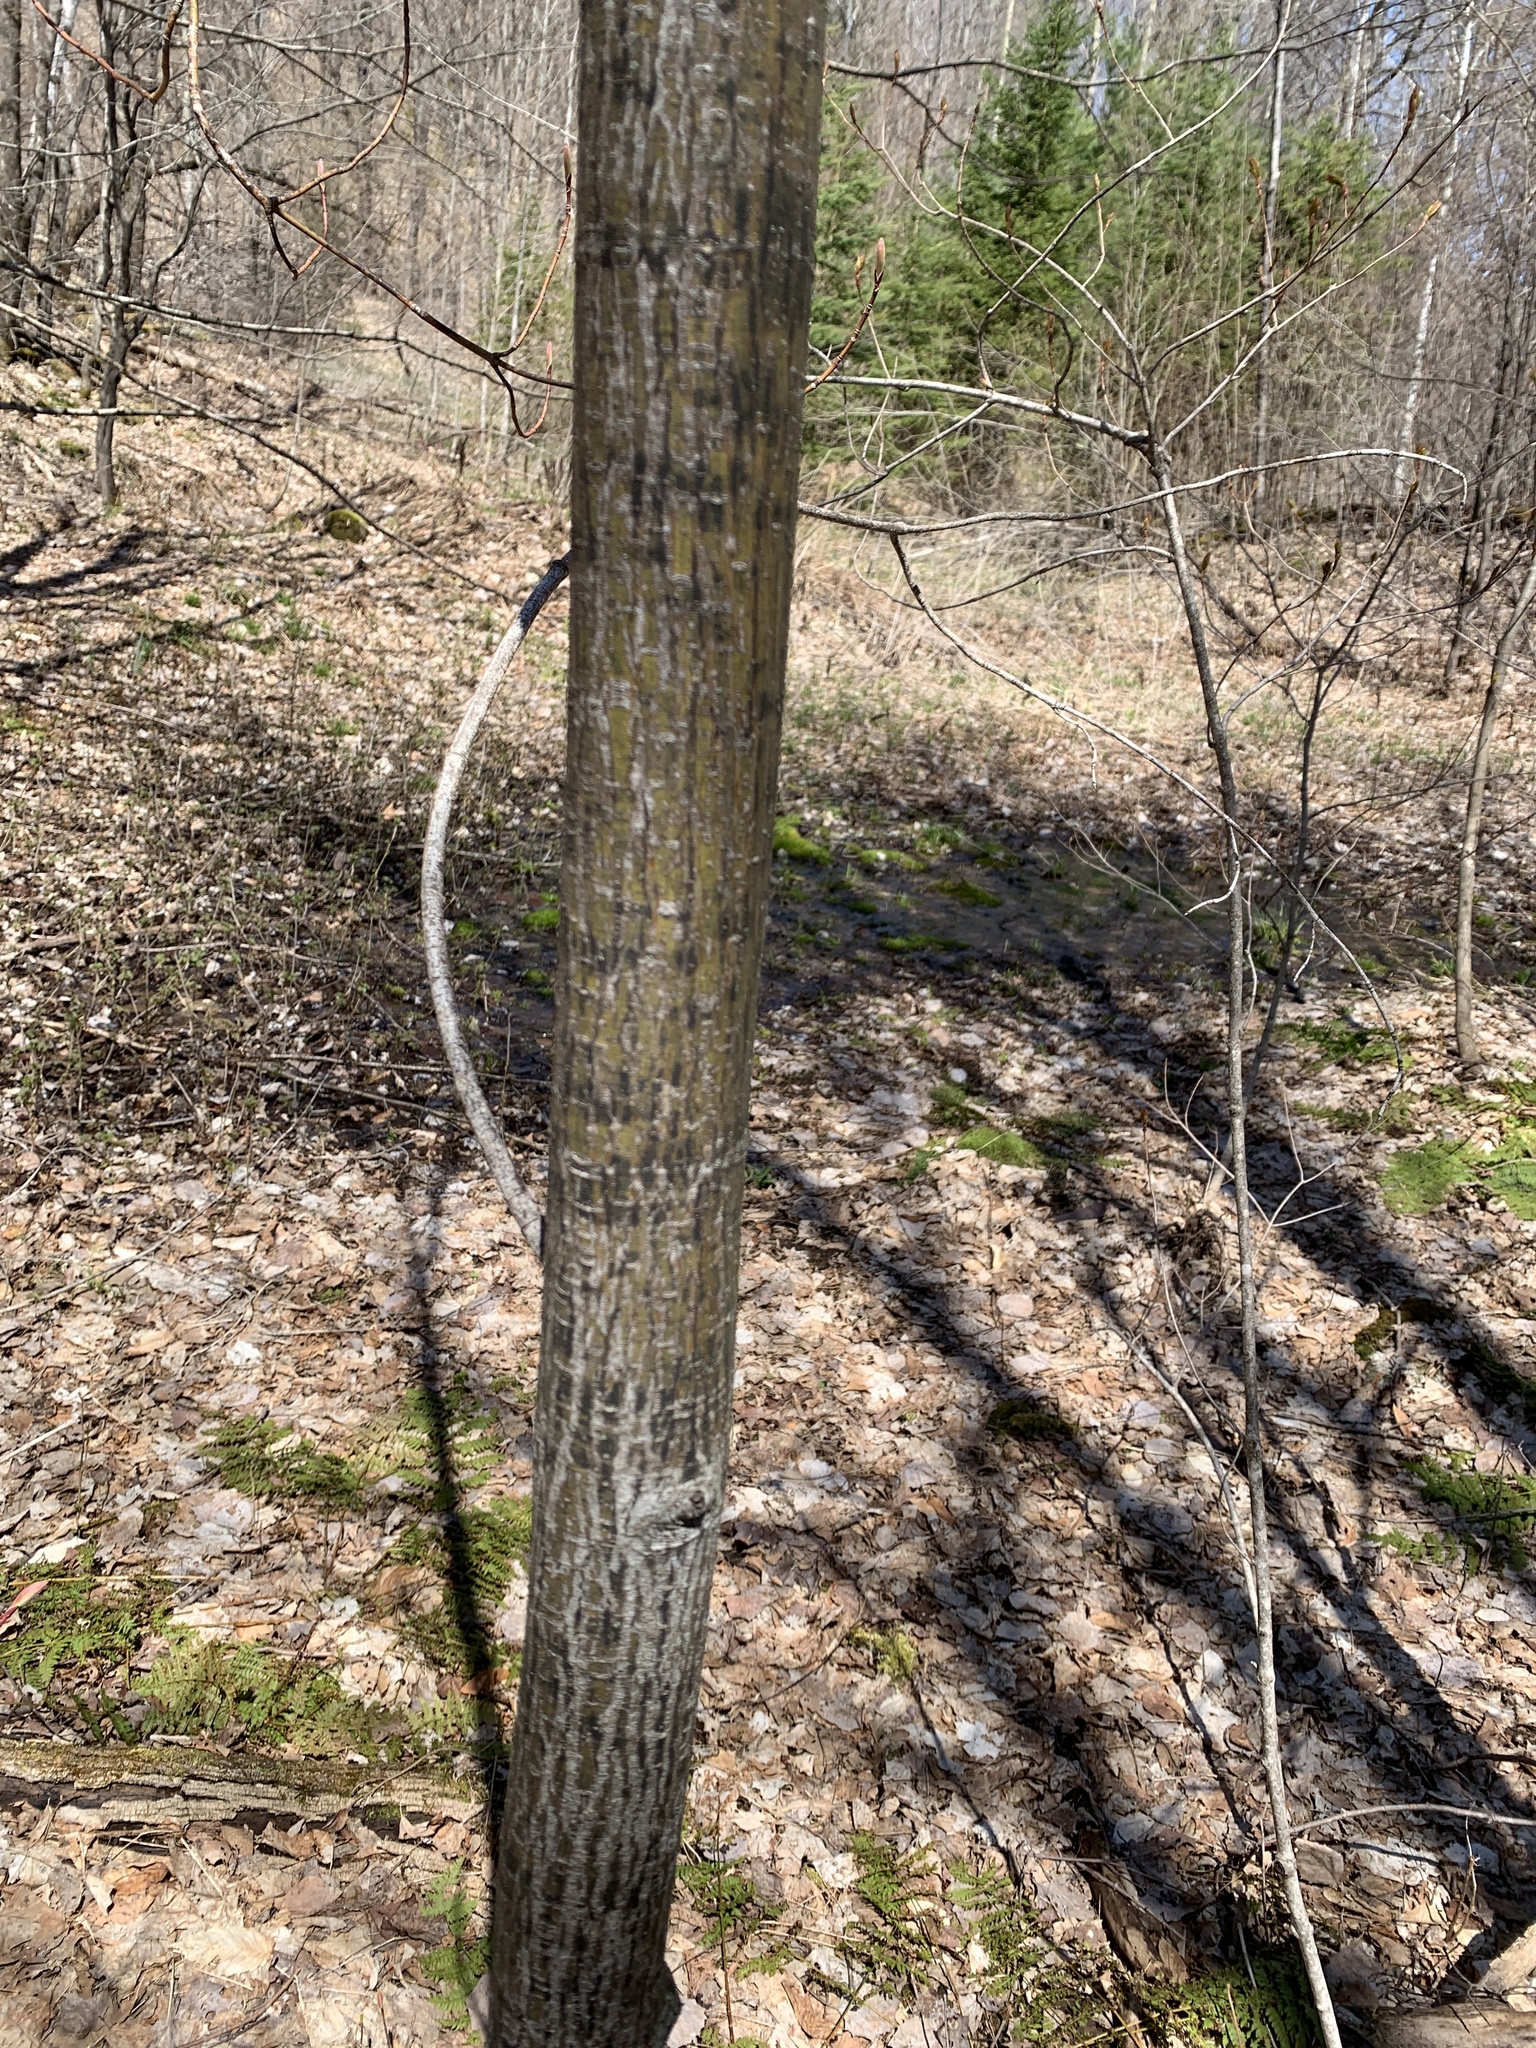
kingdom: Plantae
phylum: Tracheophyta
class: Magnoliopsida
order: Sapindales
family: Sapindaceae
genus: Acer
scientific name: Acer pensylvanicum
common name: Moosewood
